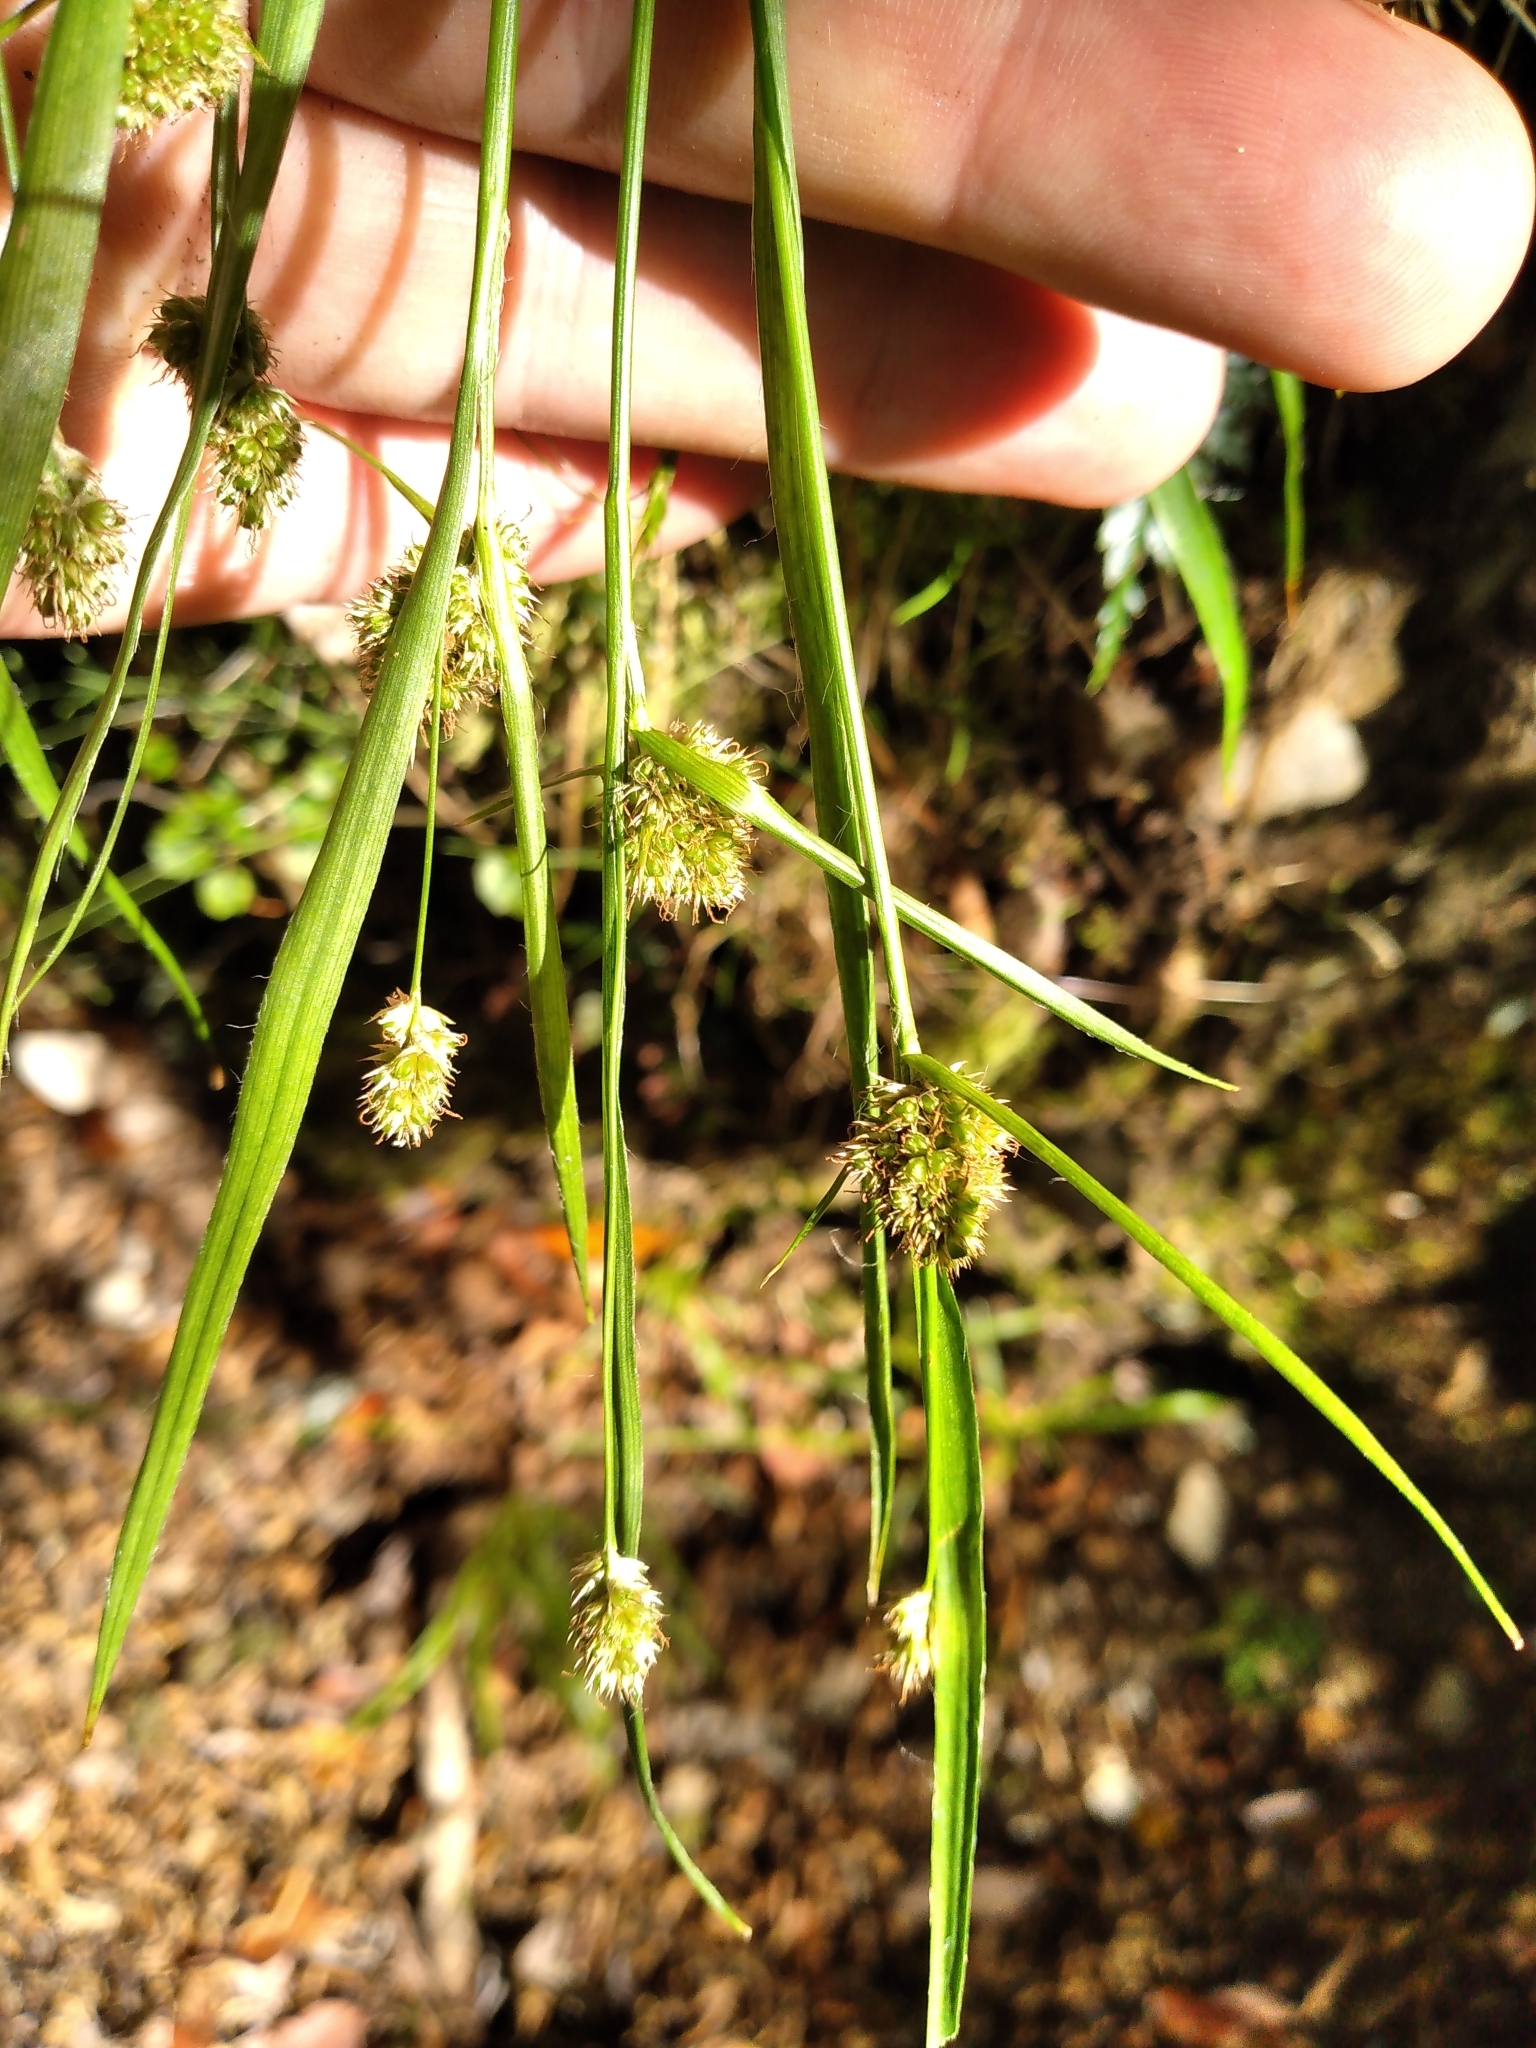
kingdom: Plantae
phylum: Tracheophyta
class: Liliopsida
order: Poales
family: Juncaceae
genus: Luzula
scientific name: Luzula picta
